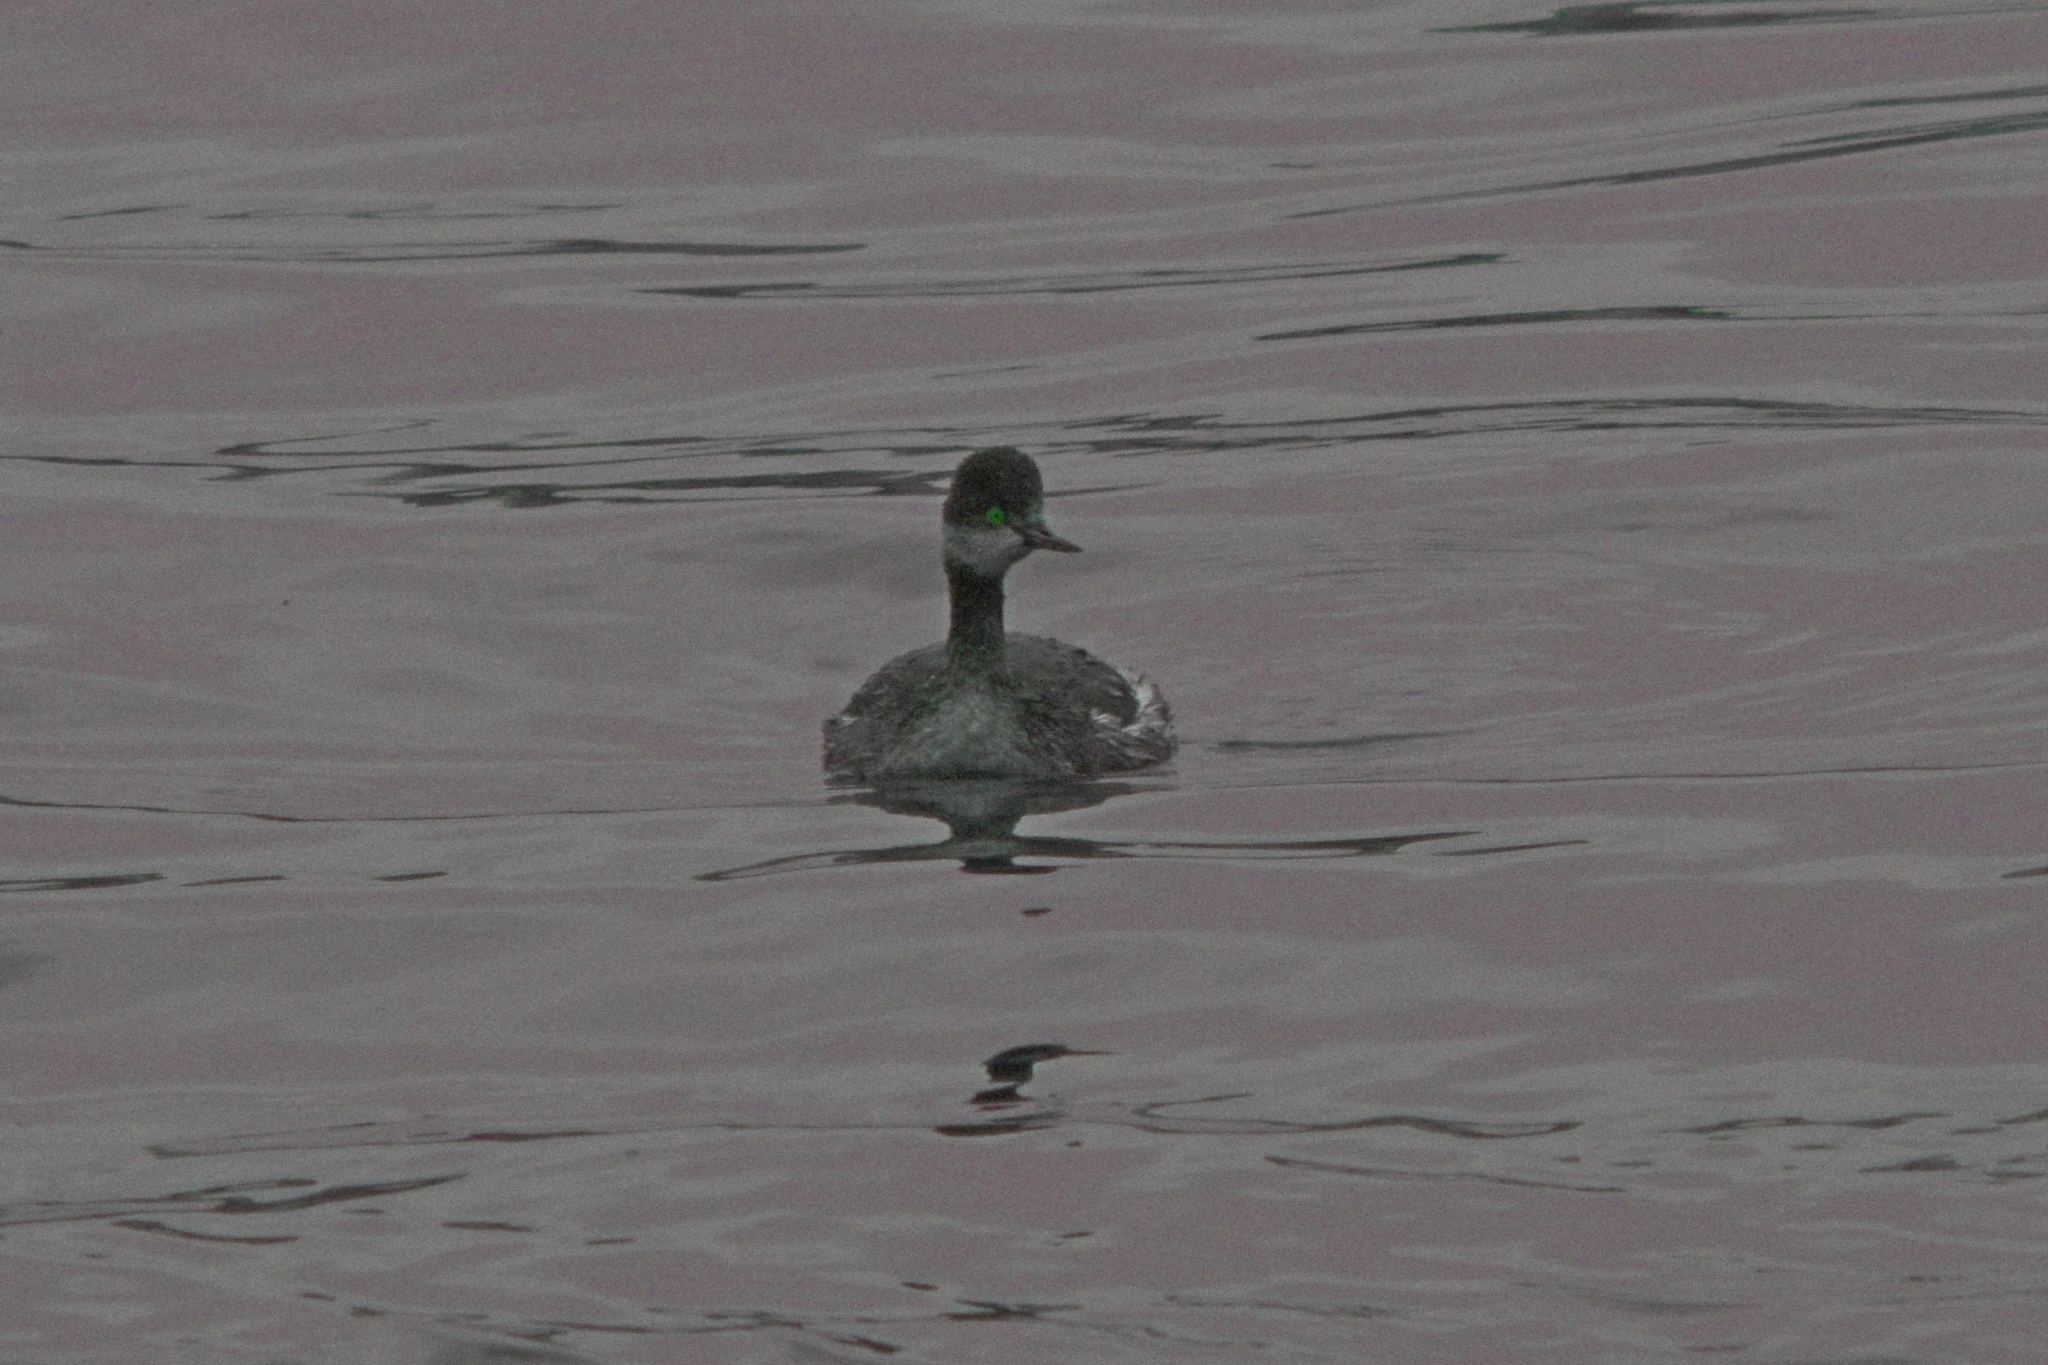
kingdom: Animalia
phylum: Chordata
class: Aves
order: Podicipediformes
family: Podicipedidae
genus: Podiceps
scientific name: Podiceps nigricollis
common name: Black-necked grebe
